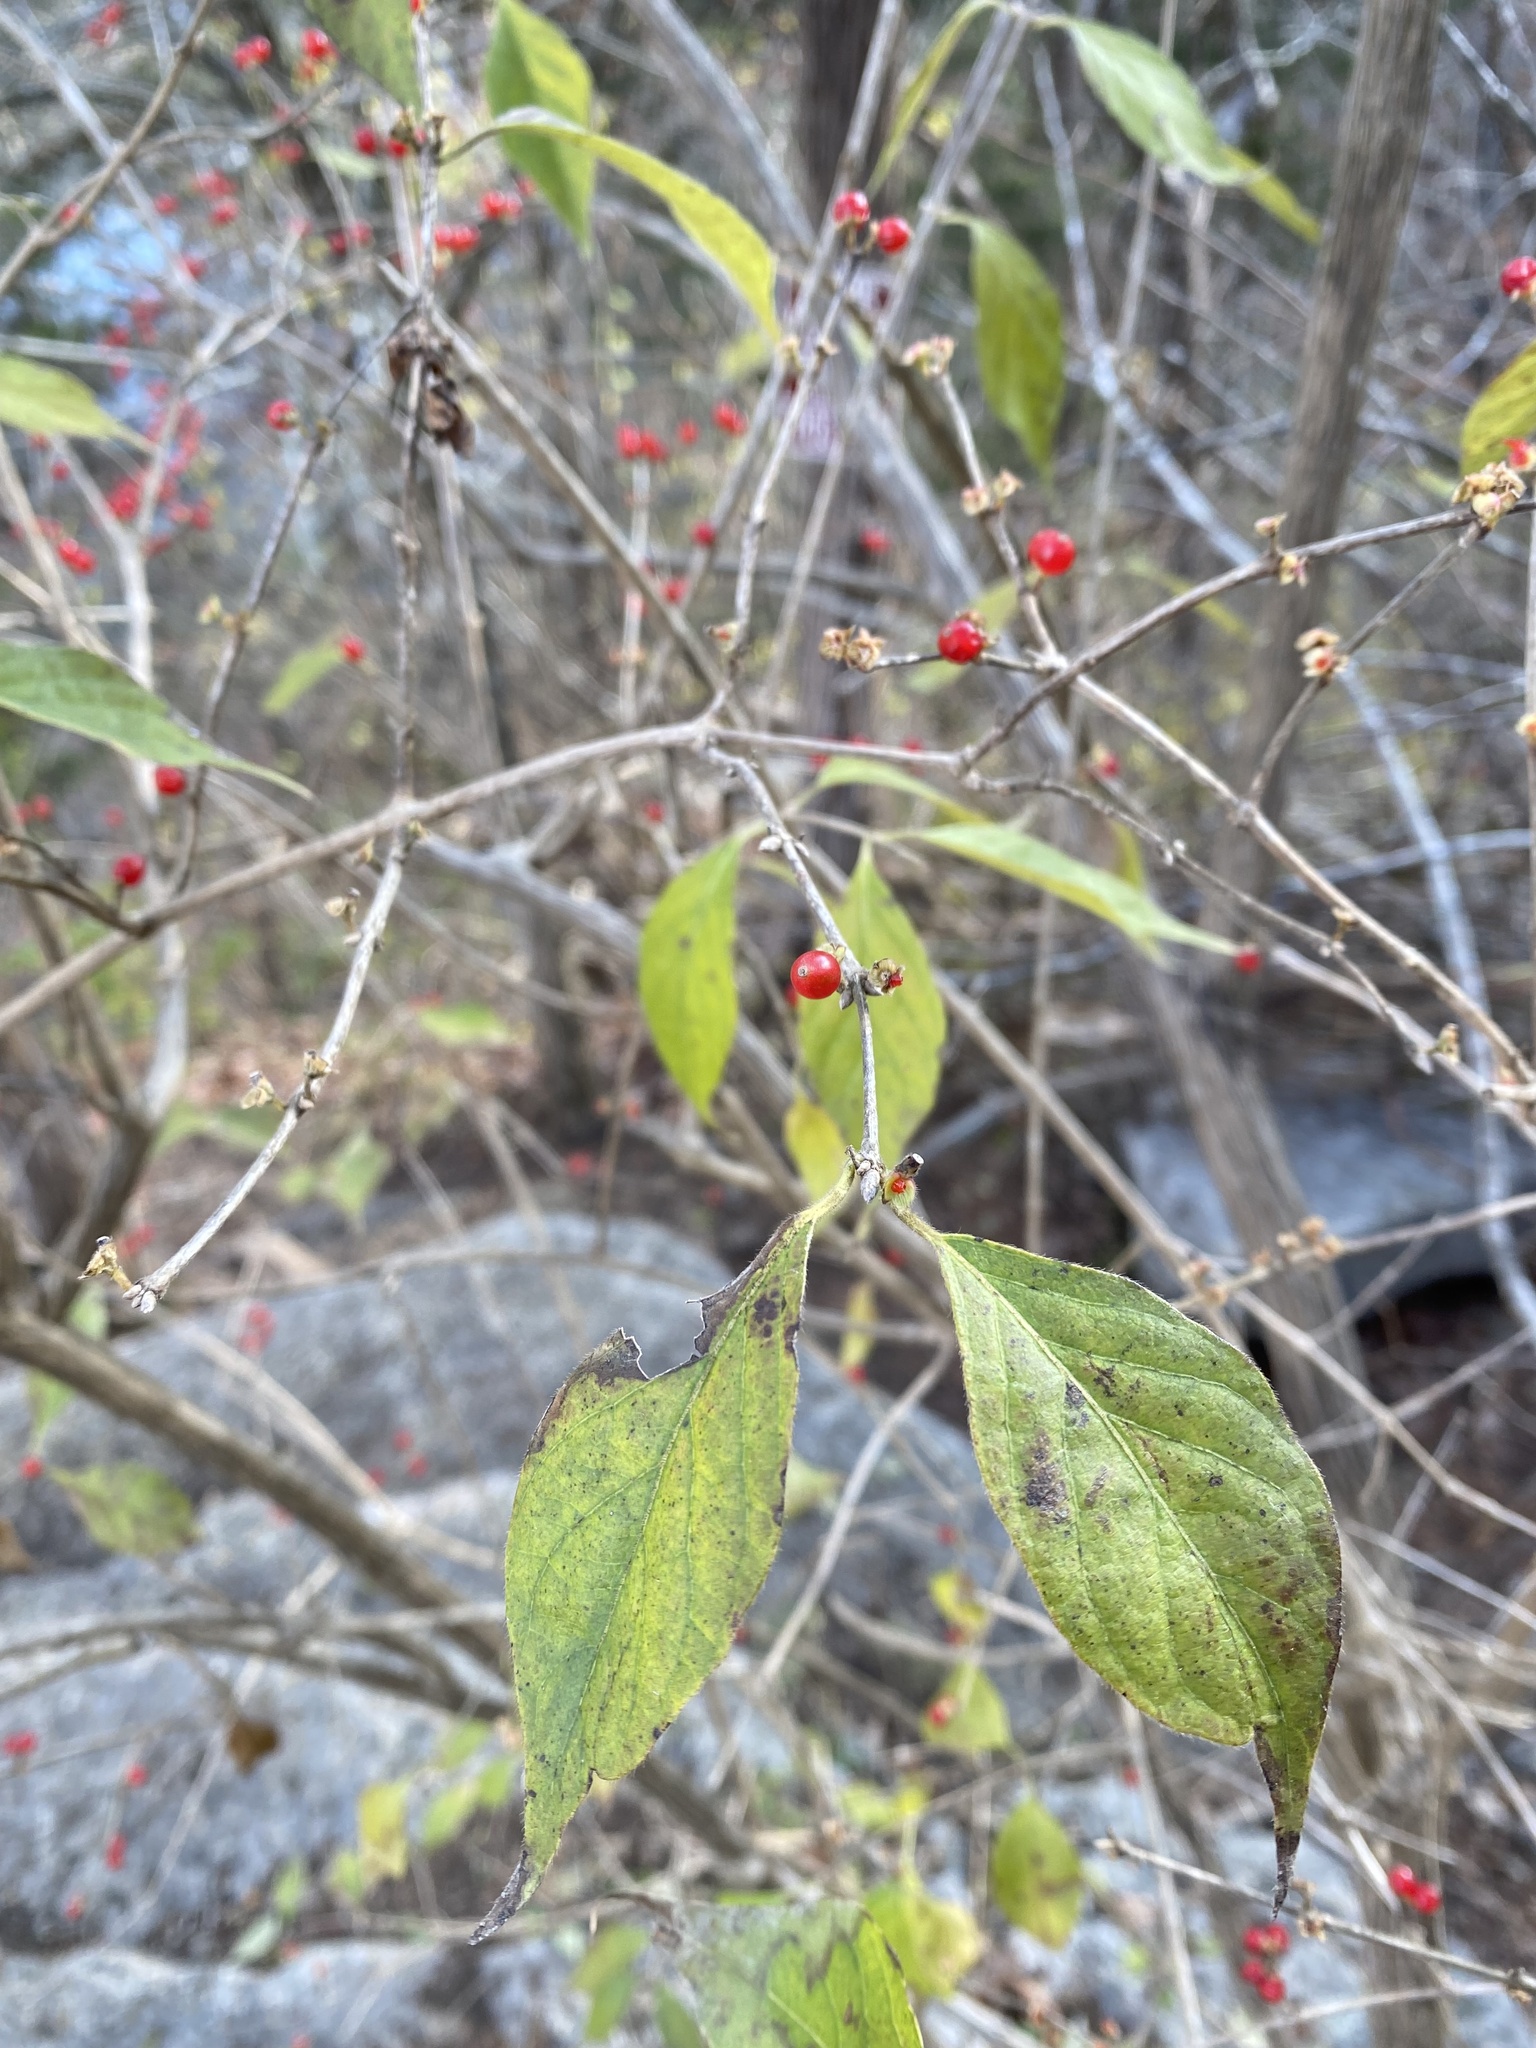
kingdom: Plantae
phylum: Tracheophyta
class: Magnoliopsida
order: Dipsacales
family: Caprifoliaceae
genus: Lonicera
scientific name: Lonicera maackii
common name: Amur honeysuckle
